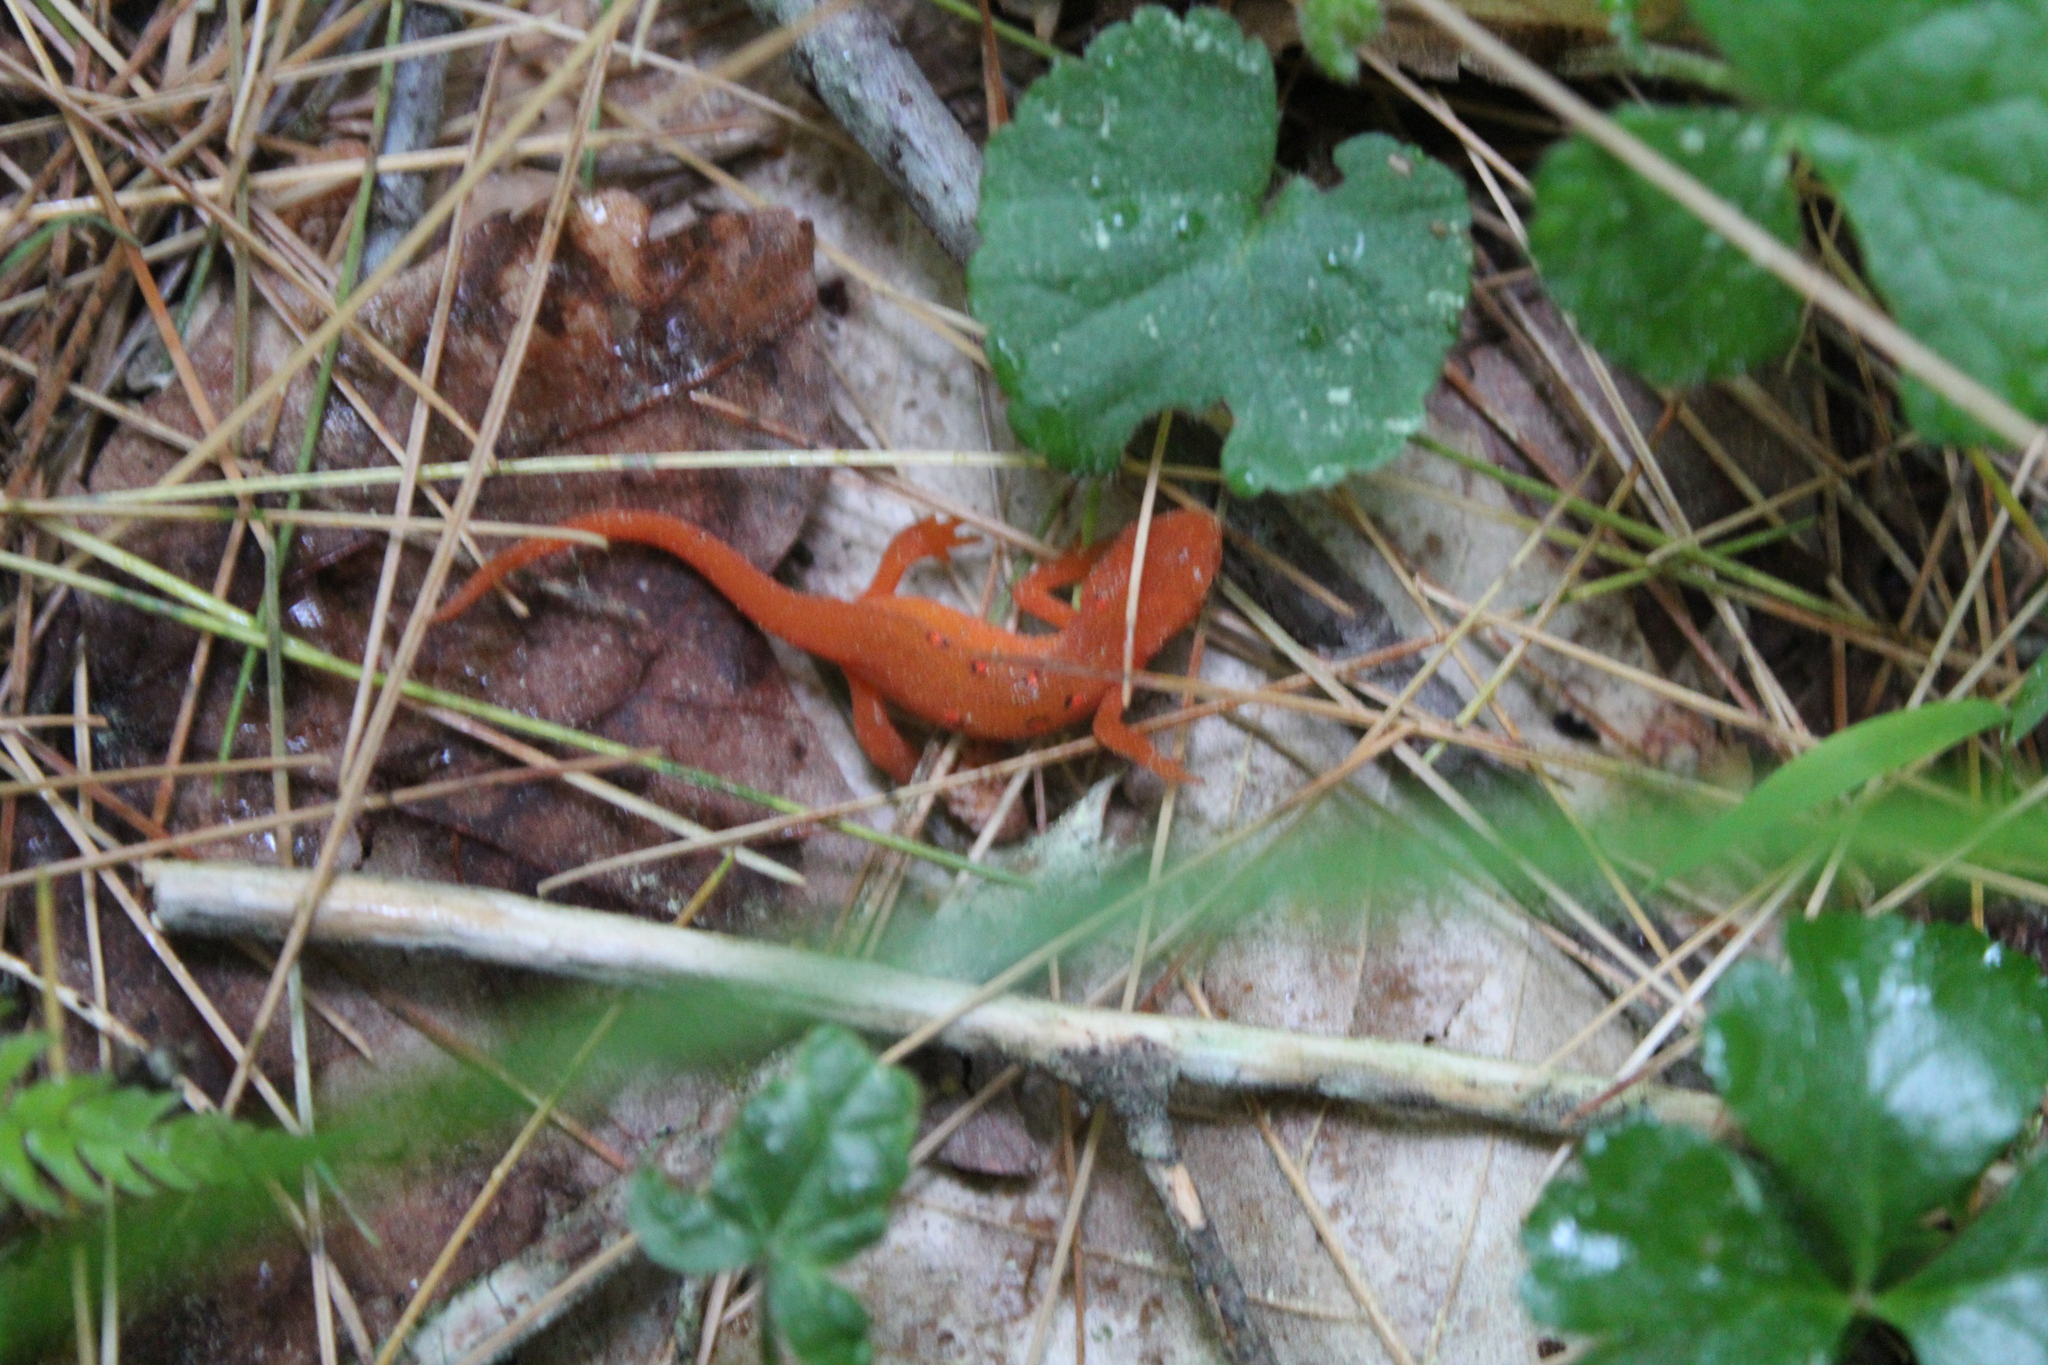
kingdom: Animalia
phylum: Chordata
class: Amphibia
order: Caudata
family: Salamandridae
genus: Notophthalmus
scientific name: Notophthalmus viridescens
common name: Eastern newt
